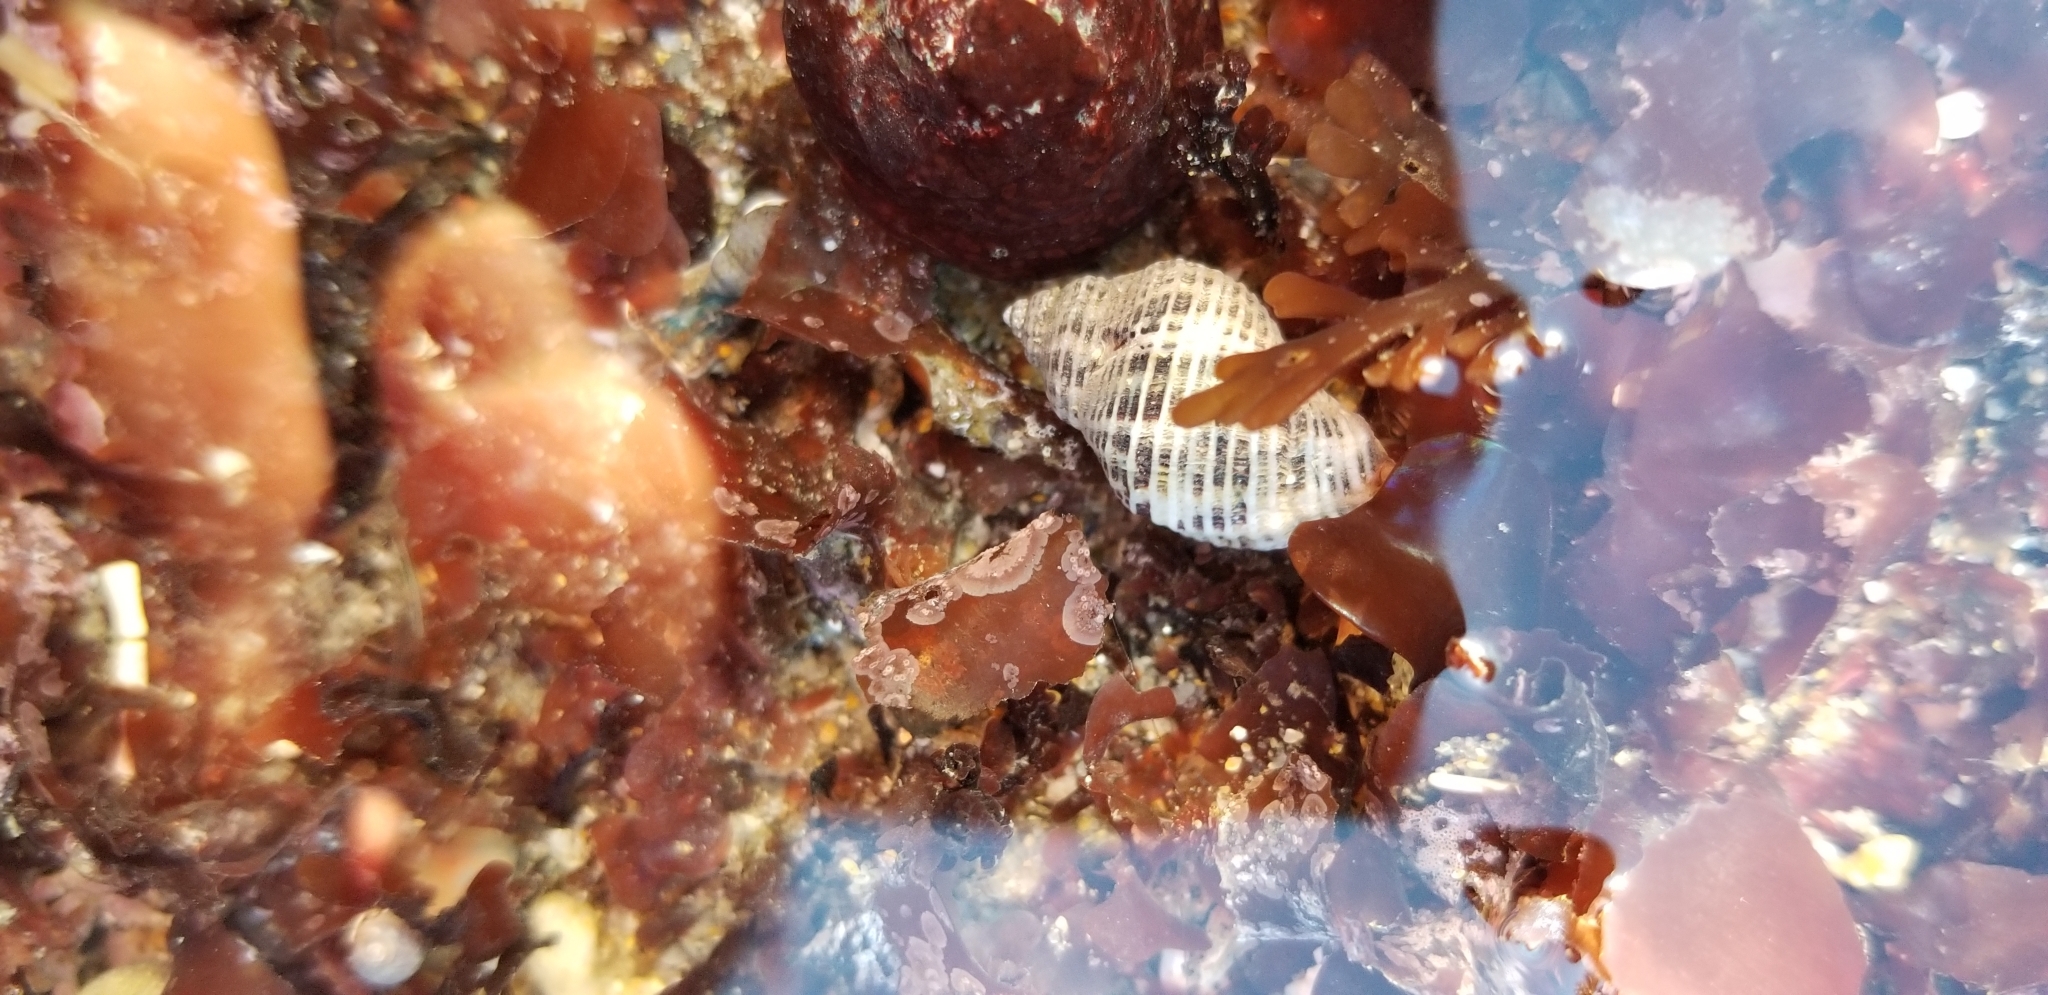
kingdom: Animalia
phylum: Mollusca
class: Gastropoda
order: Neogastropoda
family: Muricidae
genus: Acanthinucella
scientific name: Acanthinucella spirata
